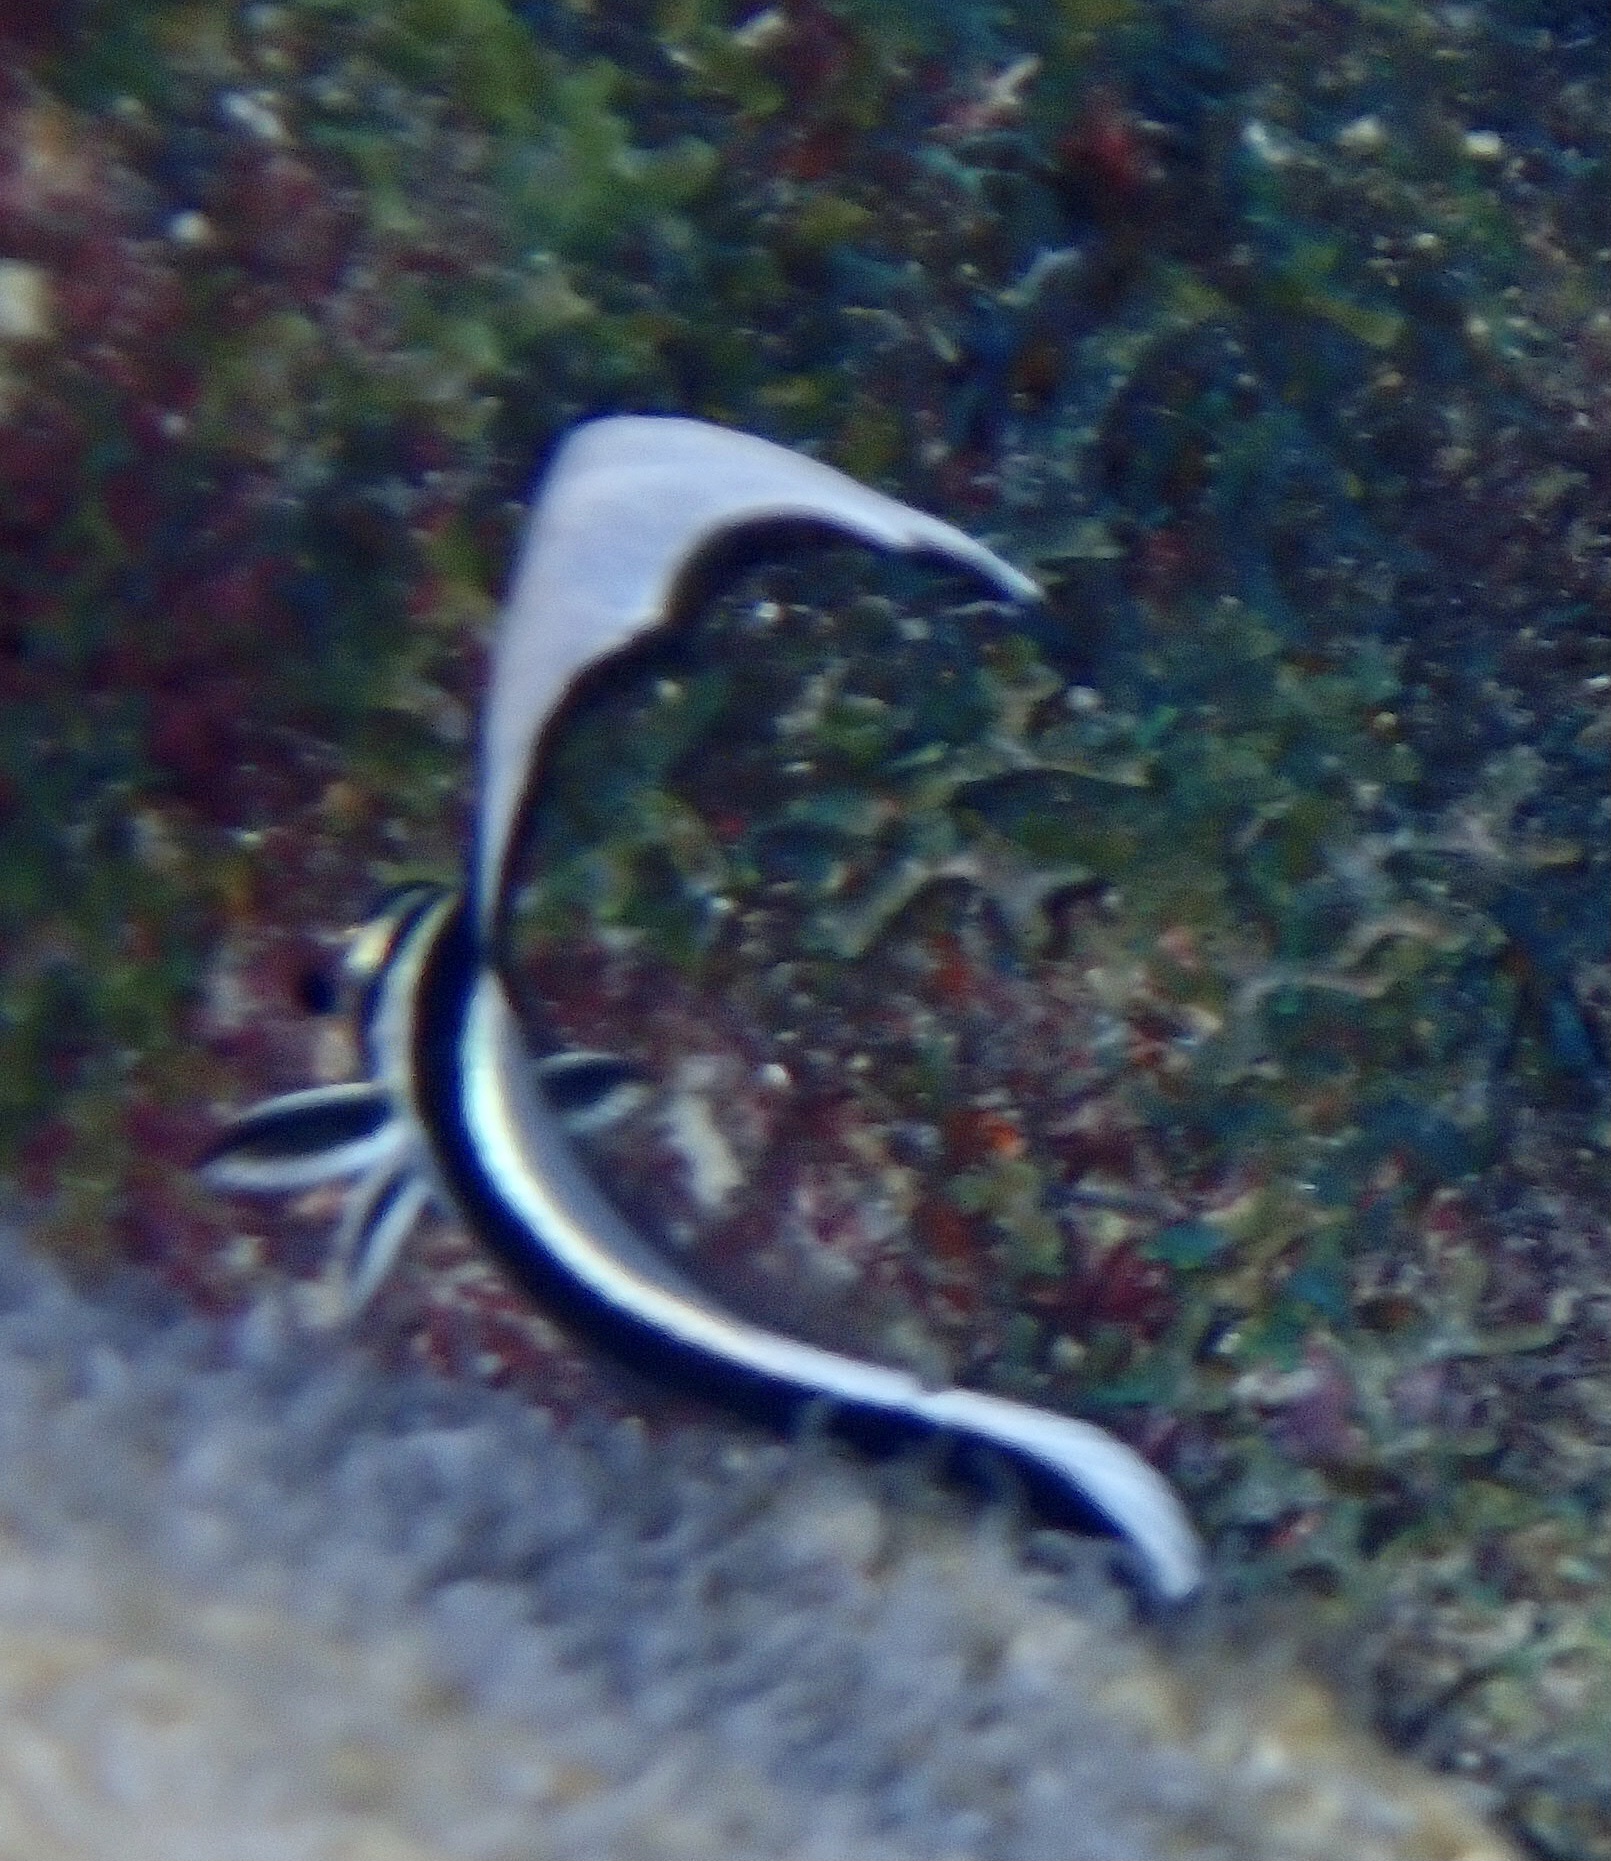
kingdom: Animalia
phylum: Chordata
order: Perciformes
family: Sciaenidae
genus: Equetus
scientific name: Equetus punctatus
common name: Spotted drum
